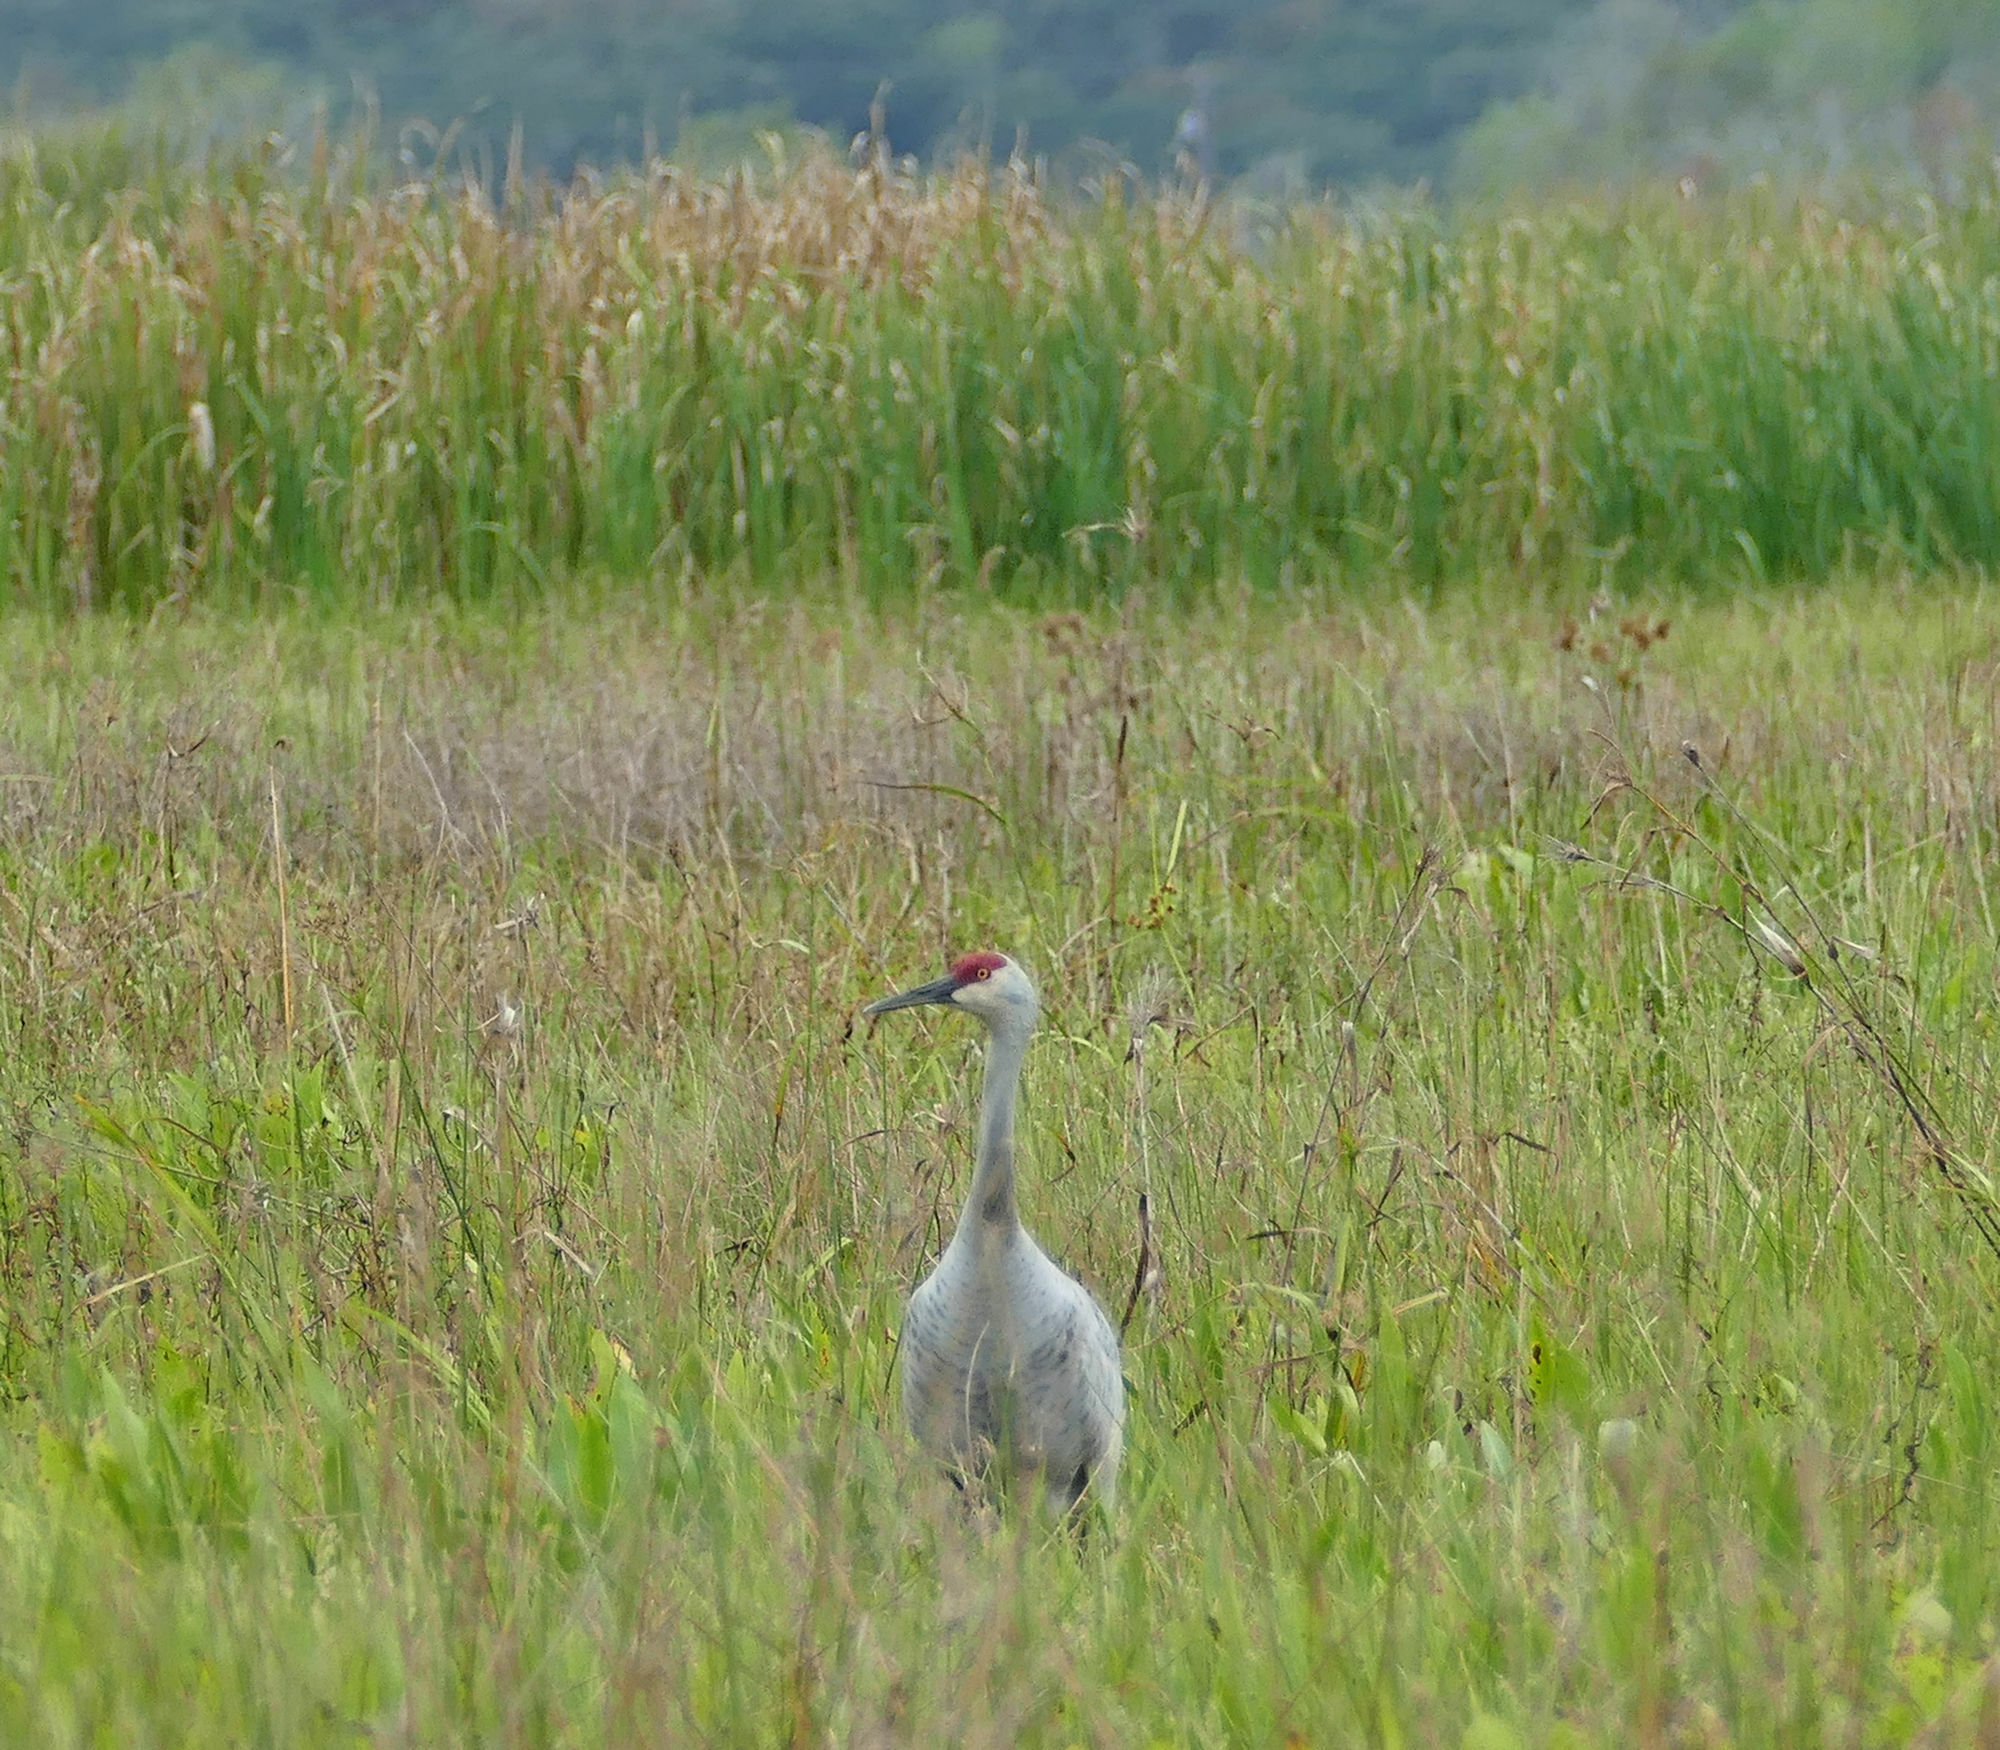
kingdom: Animalia
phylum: Chordata
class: Aves
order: Gruiformes
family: Gruidae
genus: Grus
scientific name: Grus canadensis
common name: Sandhill crane
